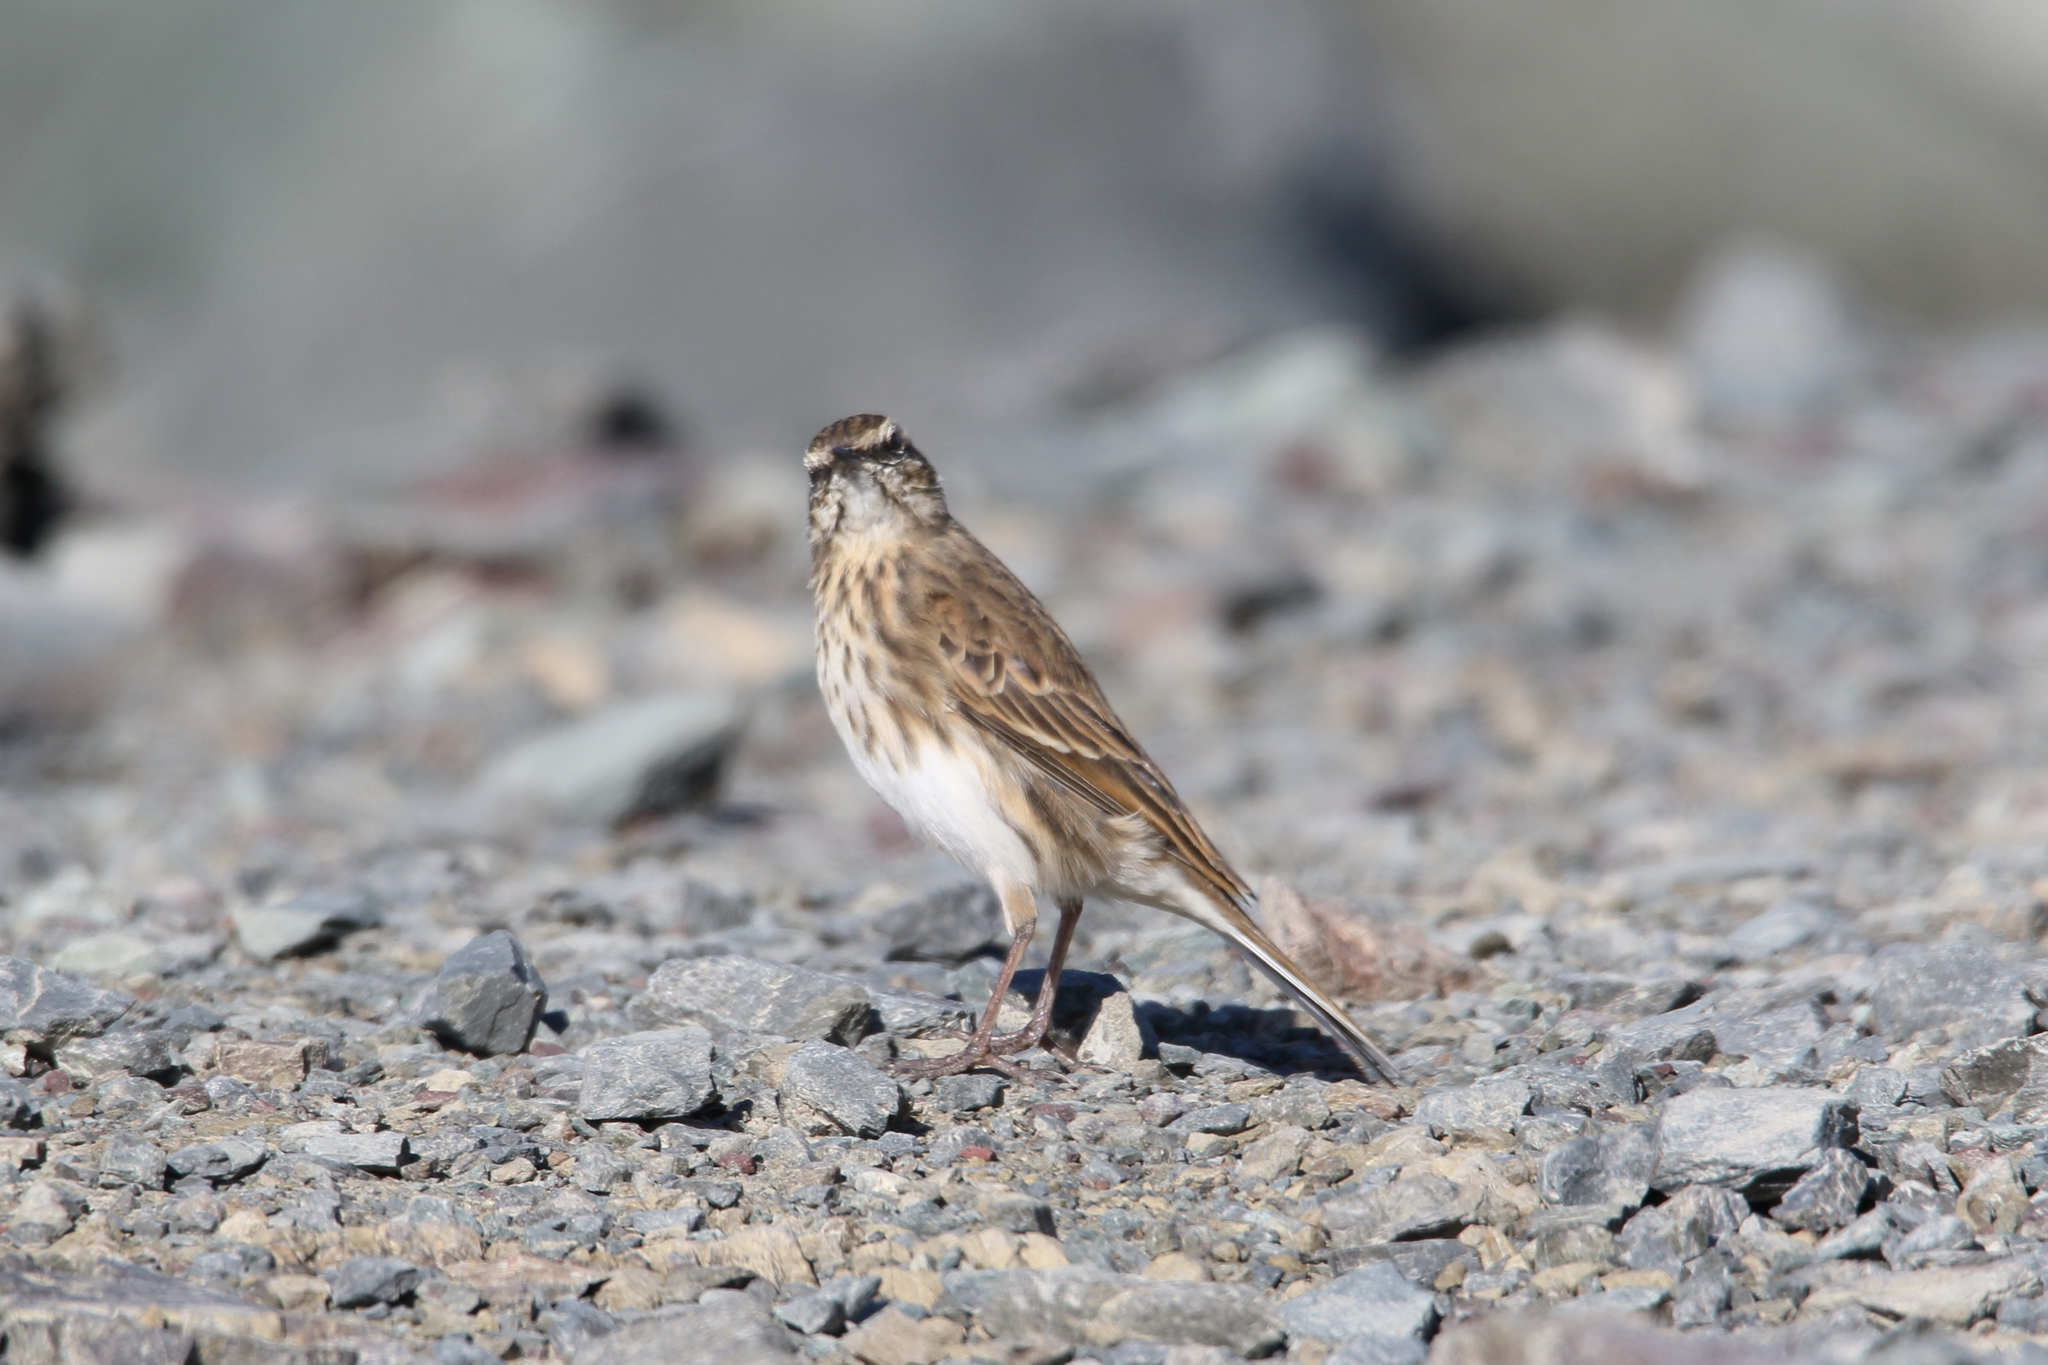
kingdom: Animalia
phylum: Chordata
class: Aves
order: Passeriformes
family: Motacillidae
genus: Anthus
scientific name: Anthus novaeseelandiae
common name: New zealand pipit
